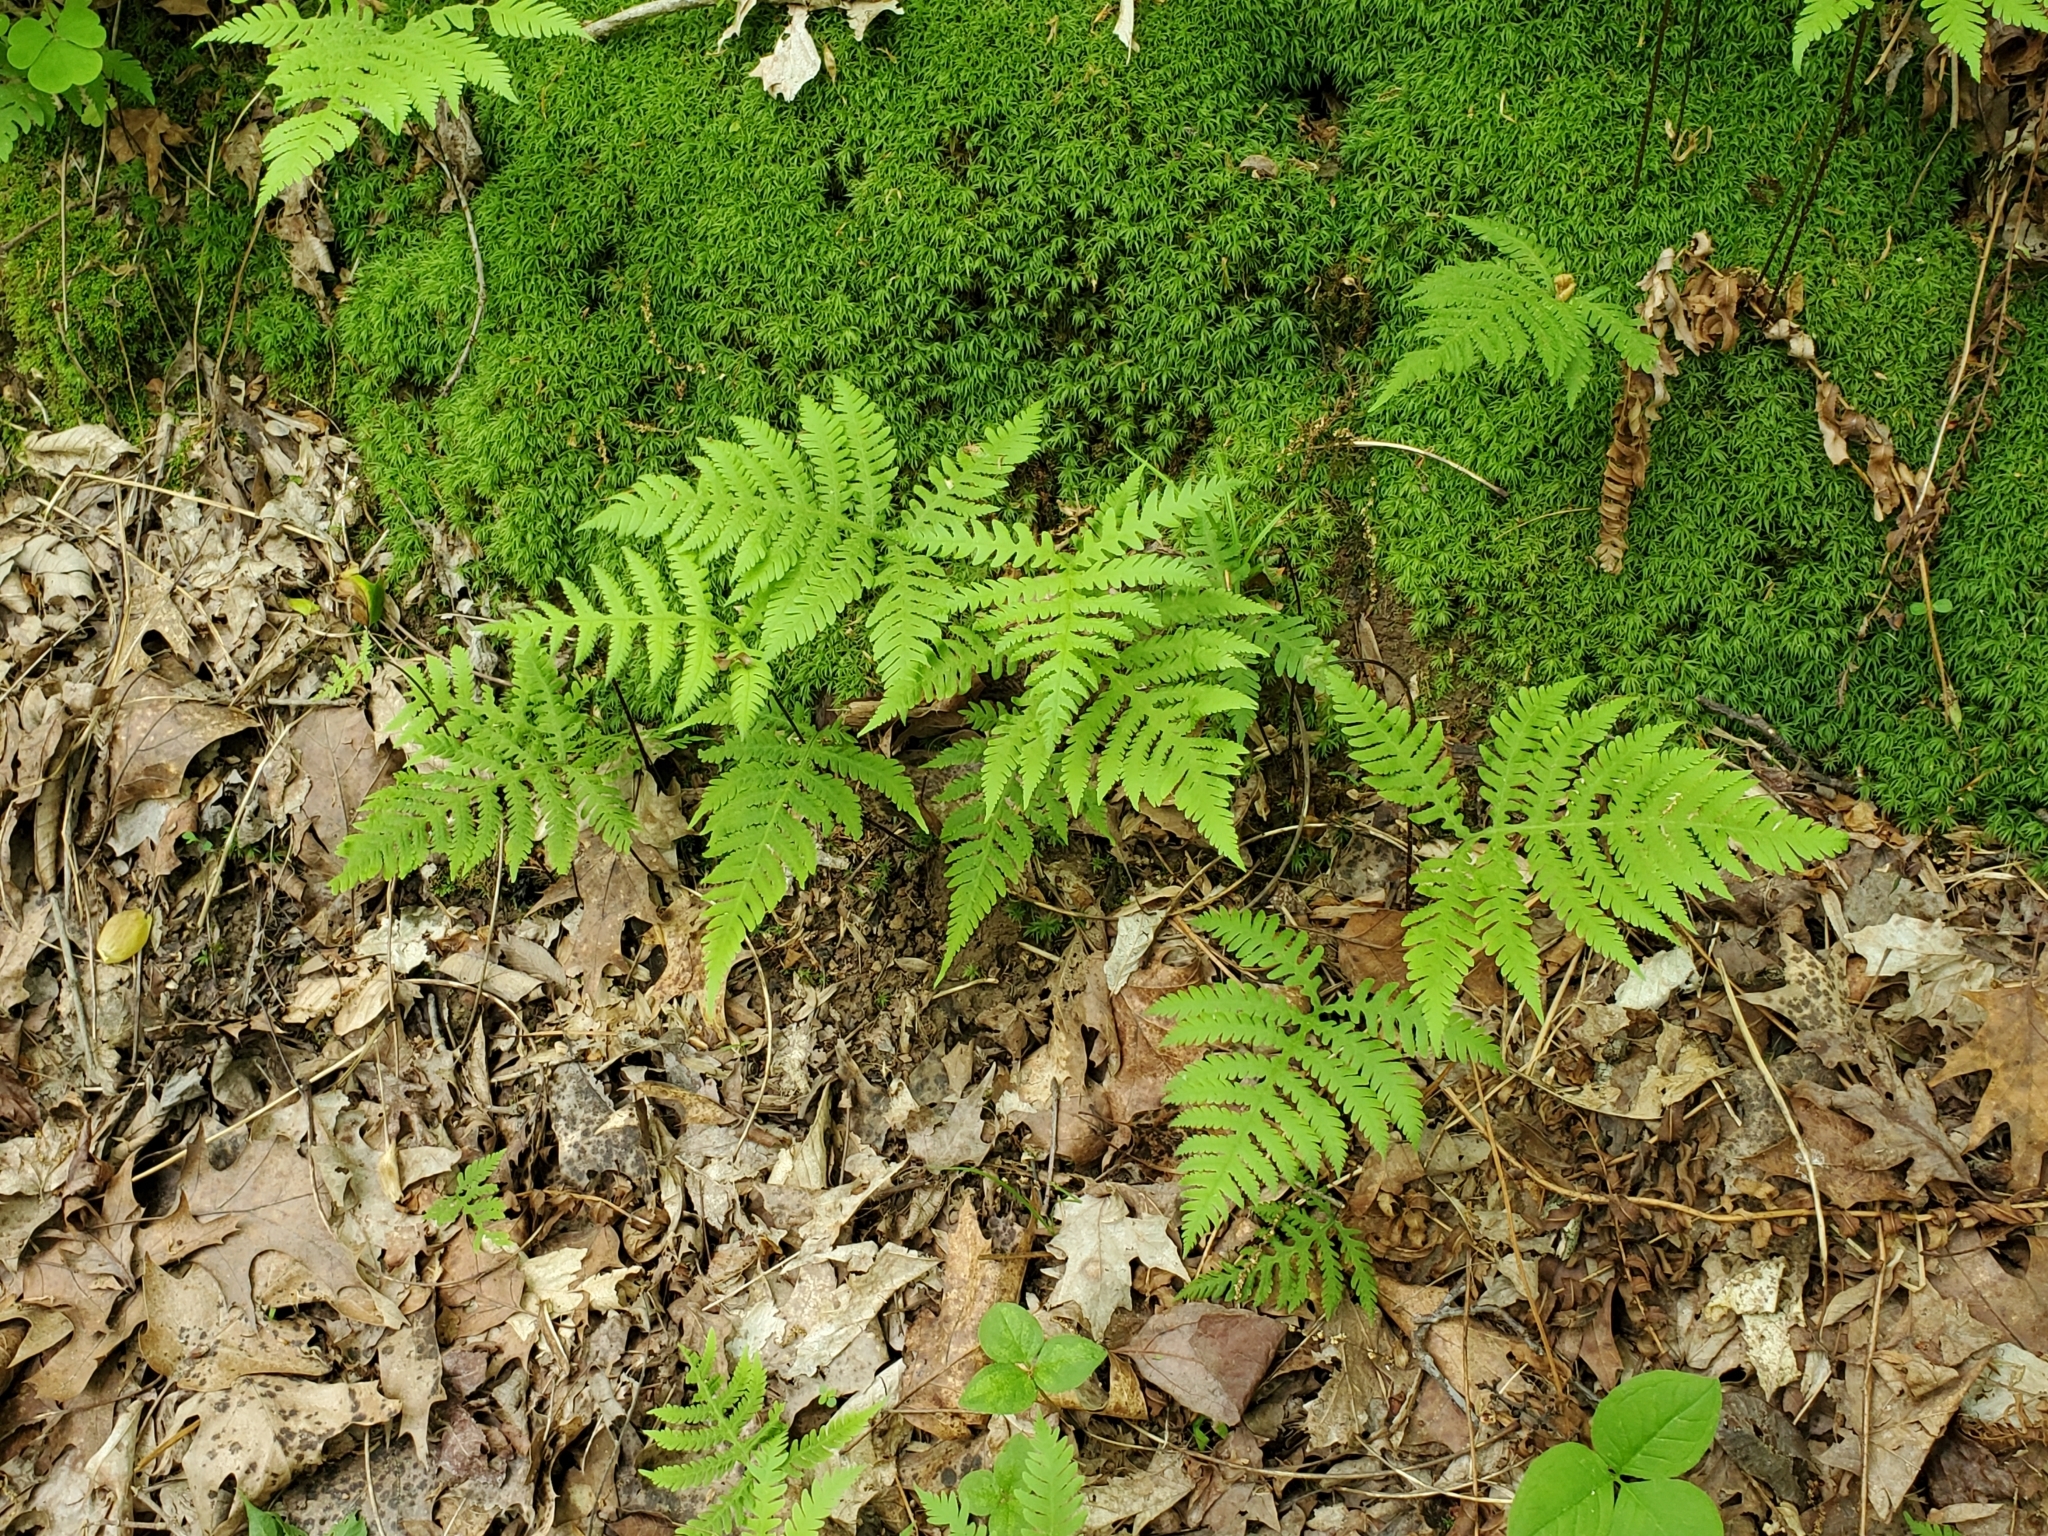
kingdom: Plantae
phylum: Tracheophyta
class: Polypodiopsida
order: Polypodiales
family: Thelypteridaceae
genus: Phegopteris
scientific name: Phegopteris hexagonoptera
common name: Broad beech fern
